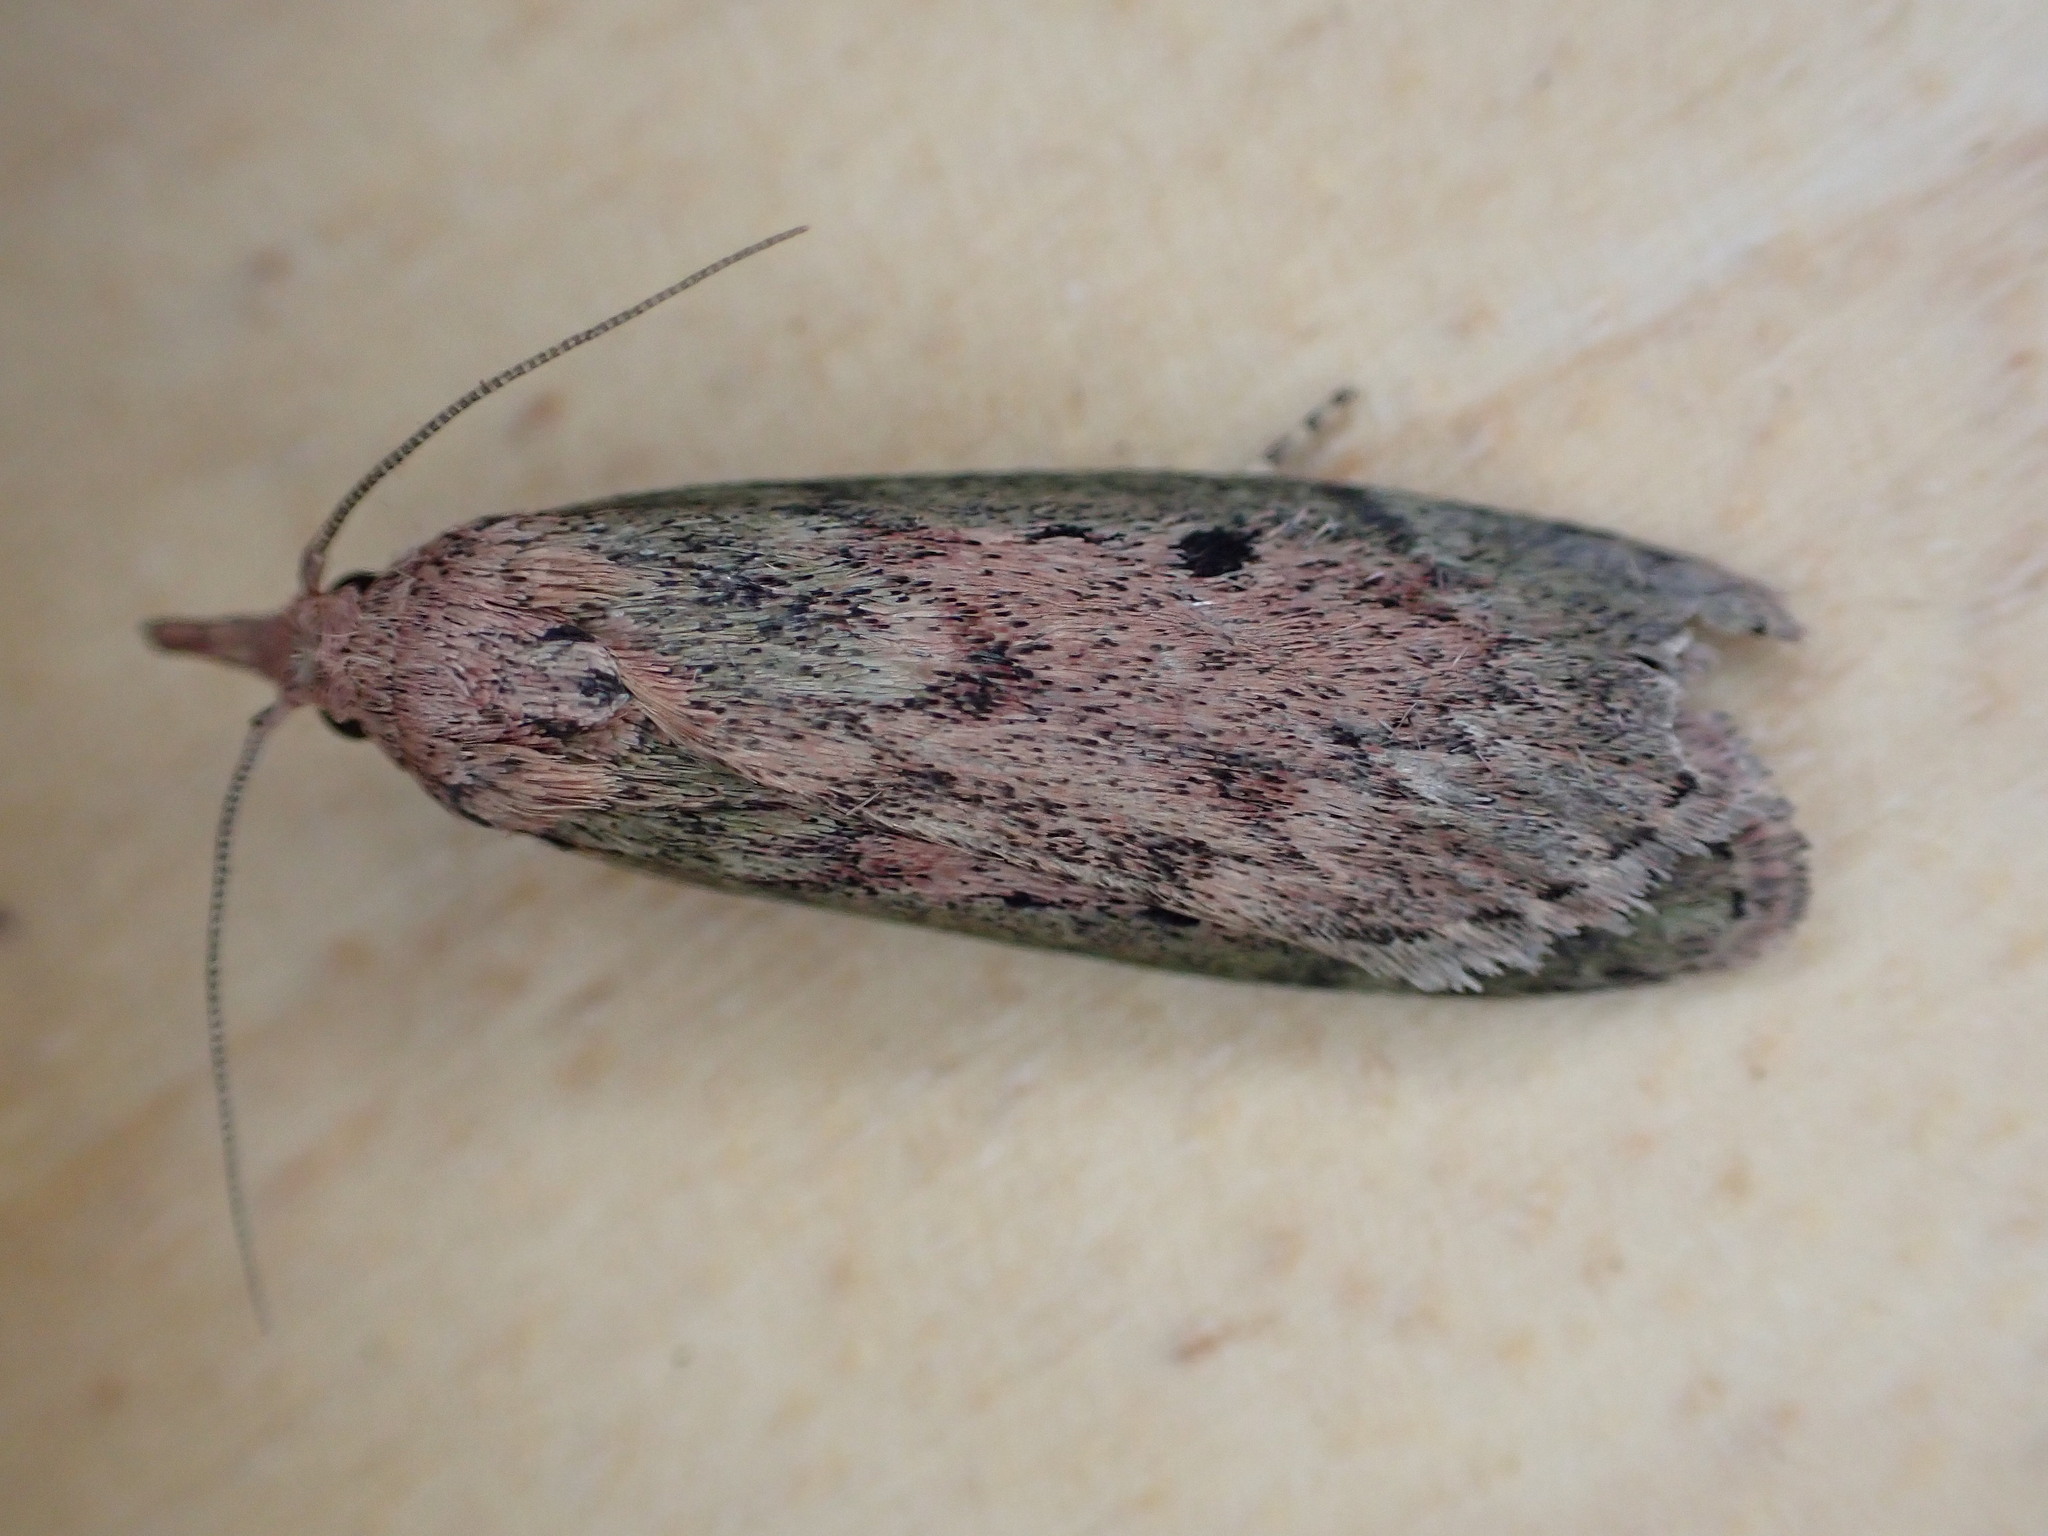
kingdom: Animalia
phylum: Arthropoda
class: Insecta
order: Lepidoptera
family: Pyralidae
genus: Aphomia
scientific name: Aphomia sociella
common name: Bee moth
